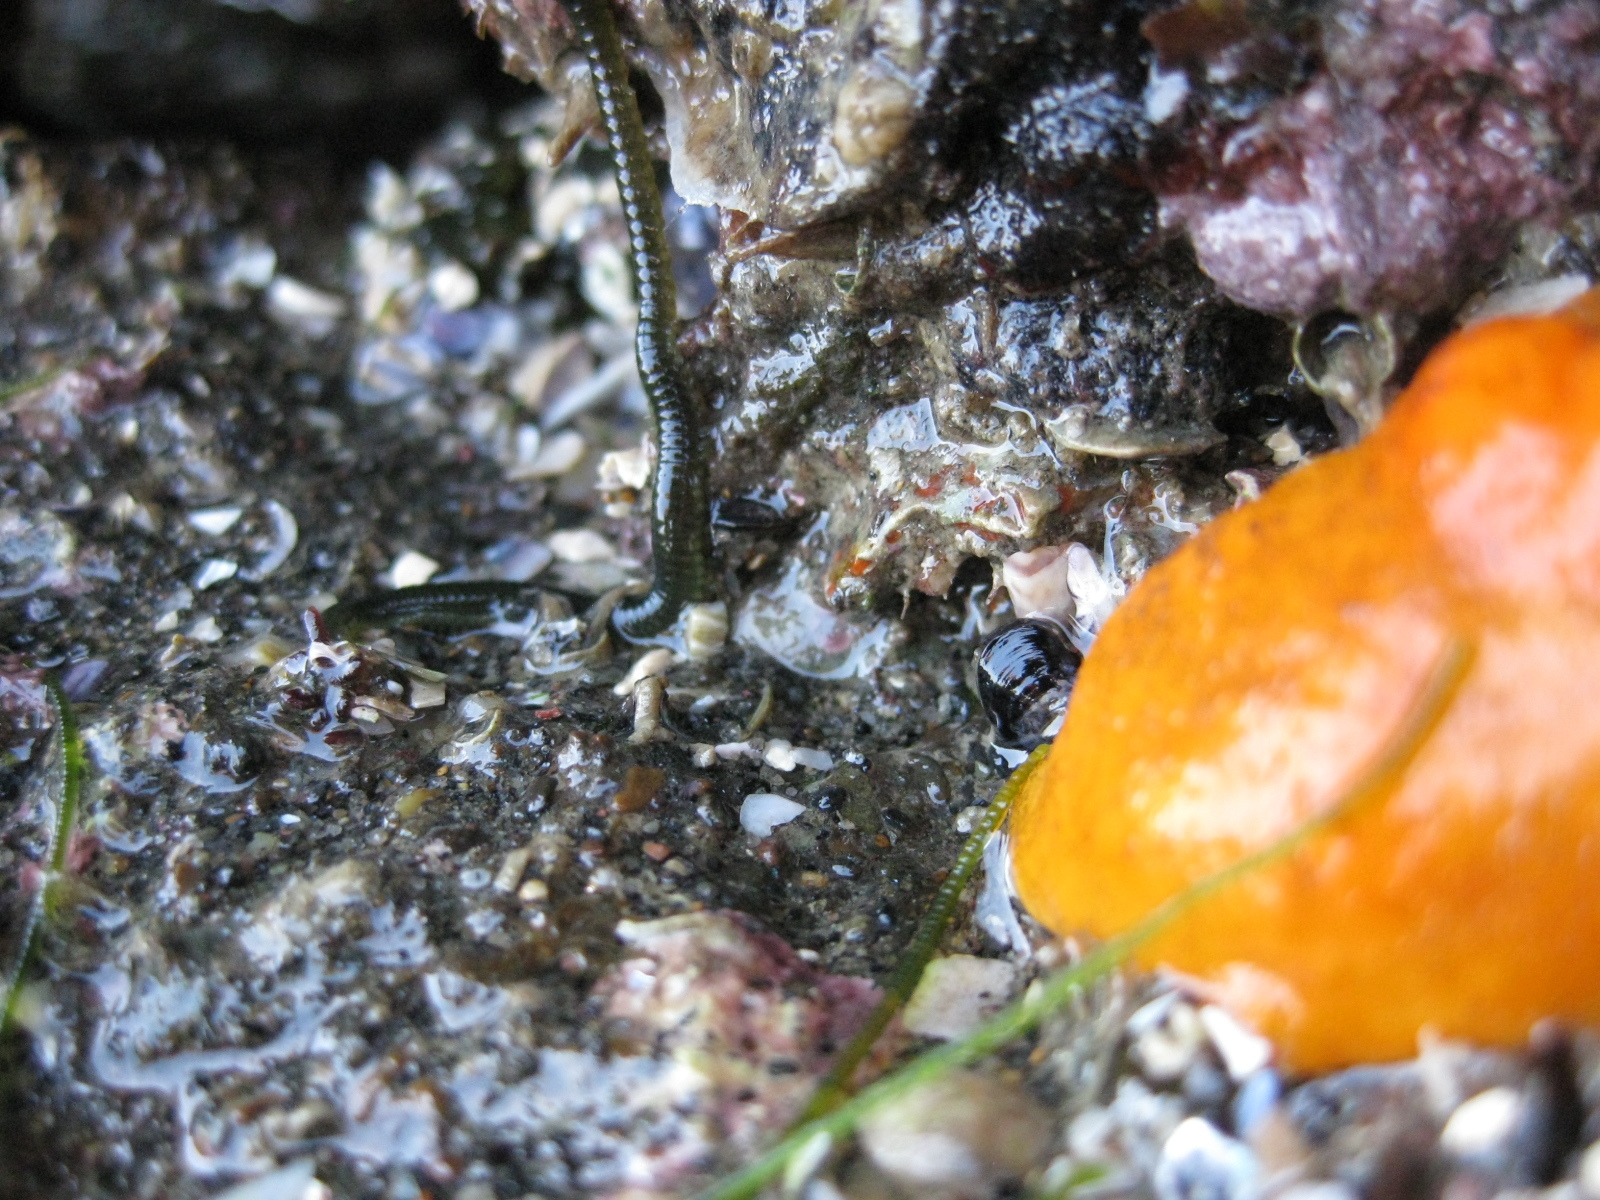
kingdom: Animalia
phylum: Annelida
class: Polychaeta
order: Phyllodocida
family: Phyllodocidae
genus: Eulalia
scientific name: Eulalia microphylla
